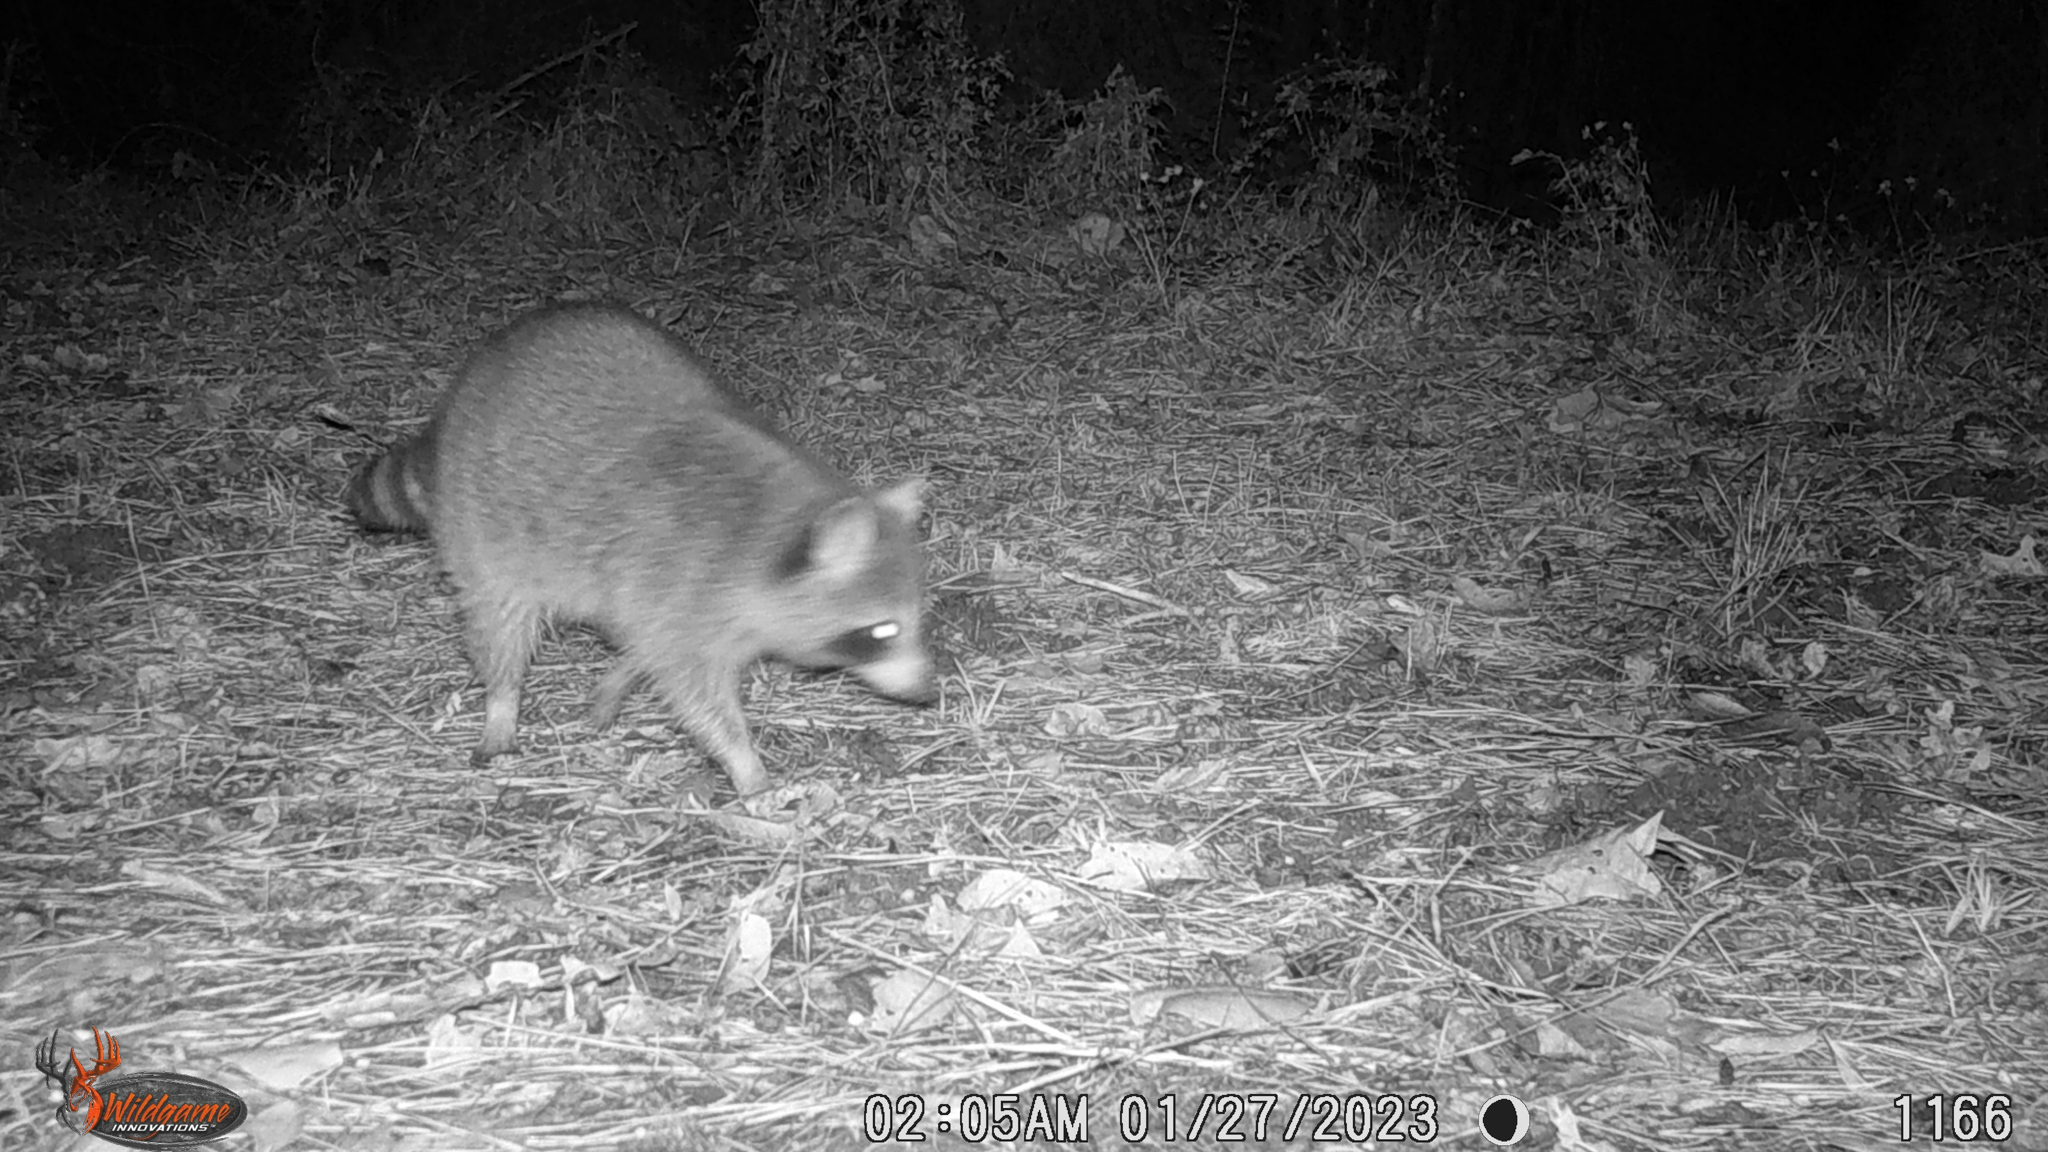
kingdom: Animalia
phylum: Chordata
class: Mammalia
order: Carnivora
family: Procyonidae
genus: Procyon
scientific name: Procyon lotor
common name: Raccoon
